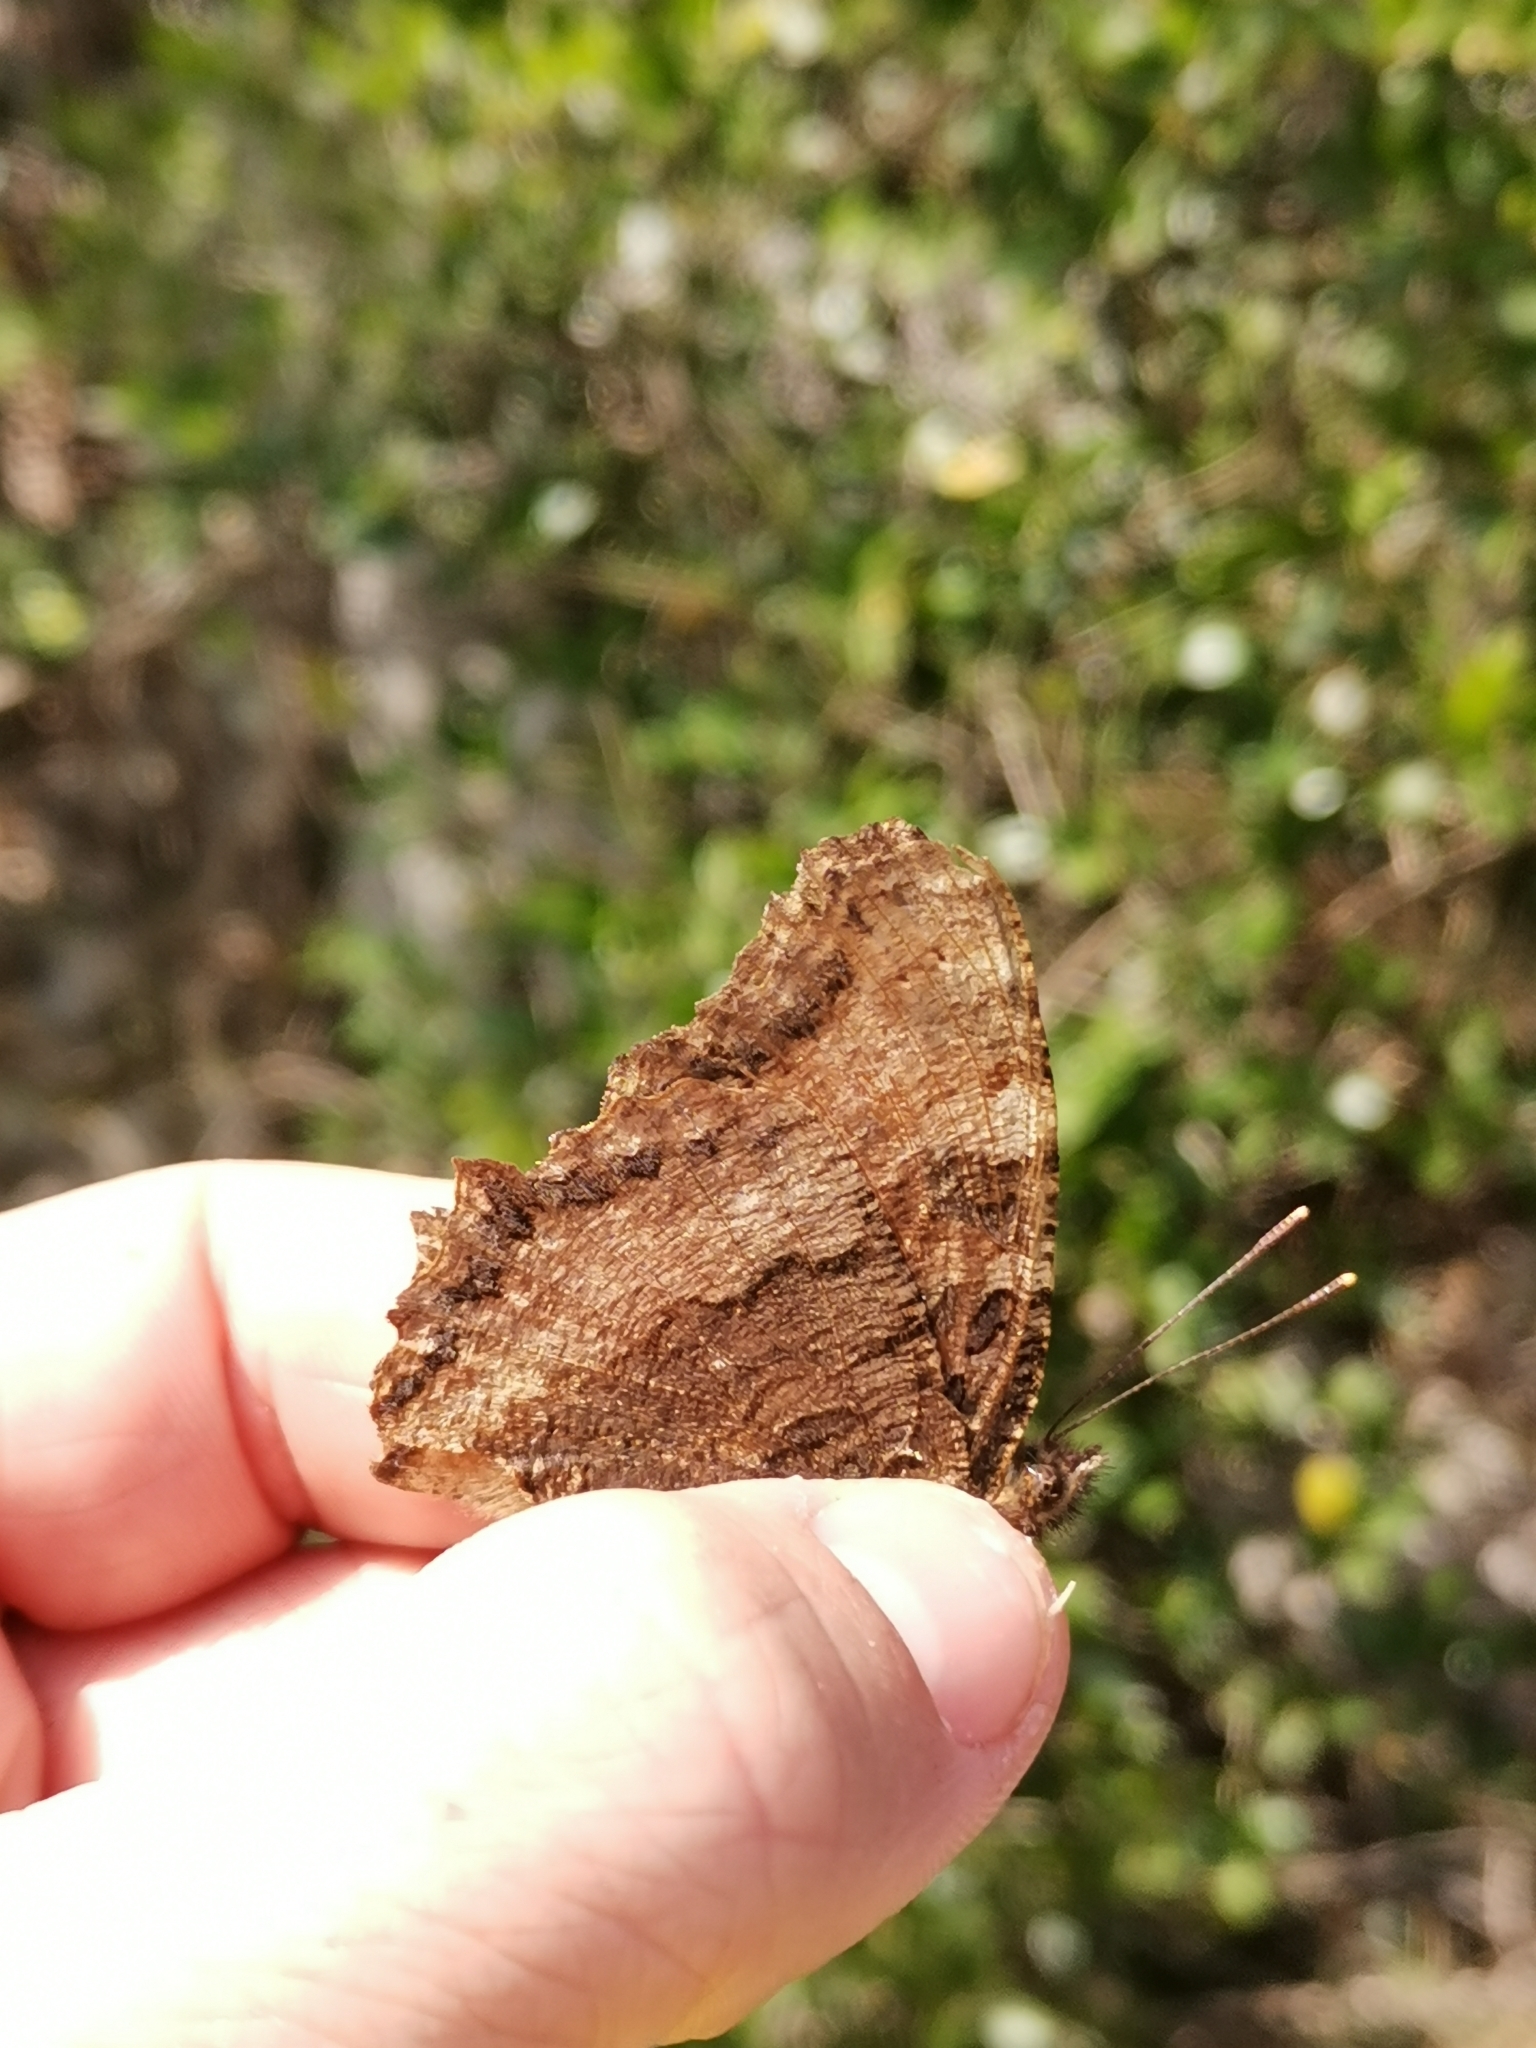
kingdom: Animalia
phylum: Arthropoda
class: Insecta
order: Lepidoptera
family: Nymphalidae
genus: Nymphalis
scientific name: Nymphalis polychloros
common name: Large tortoiseshell
